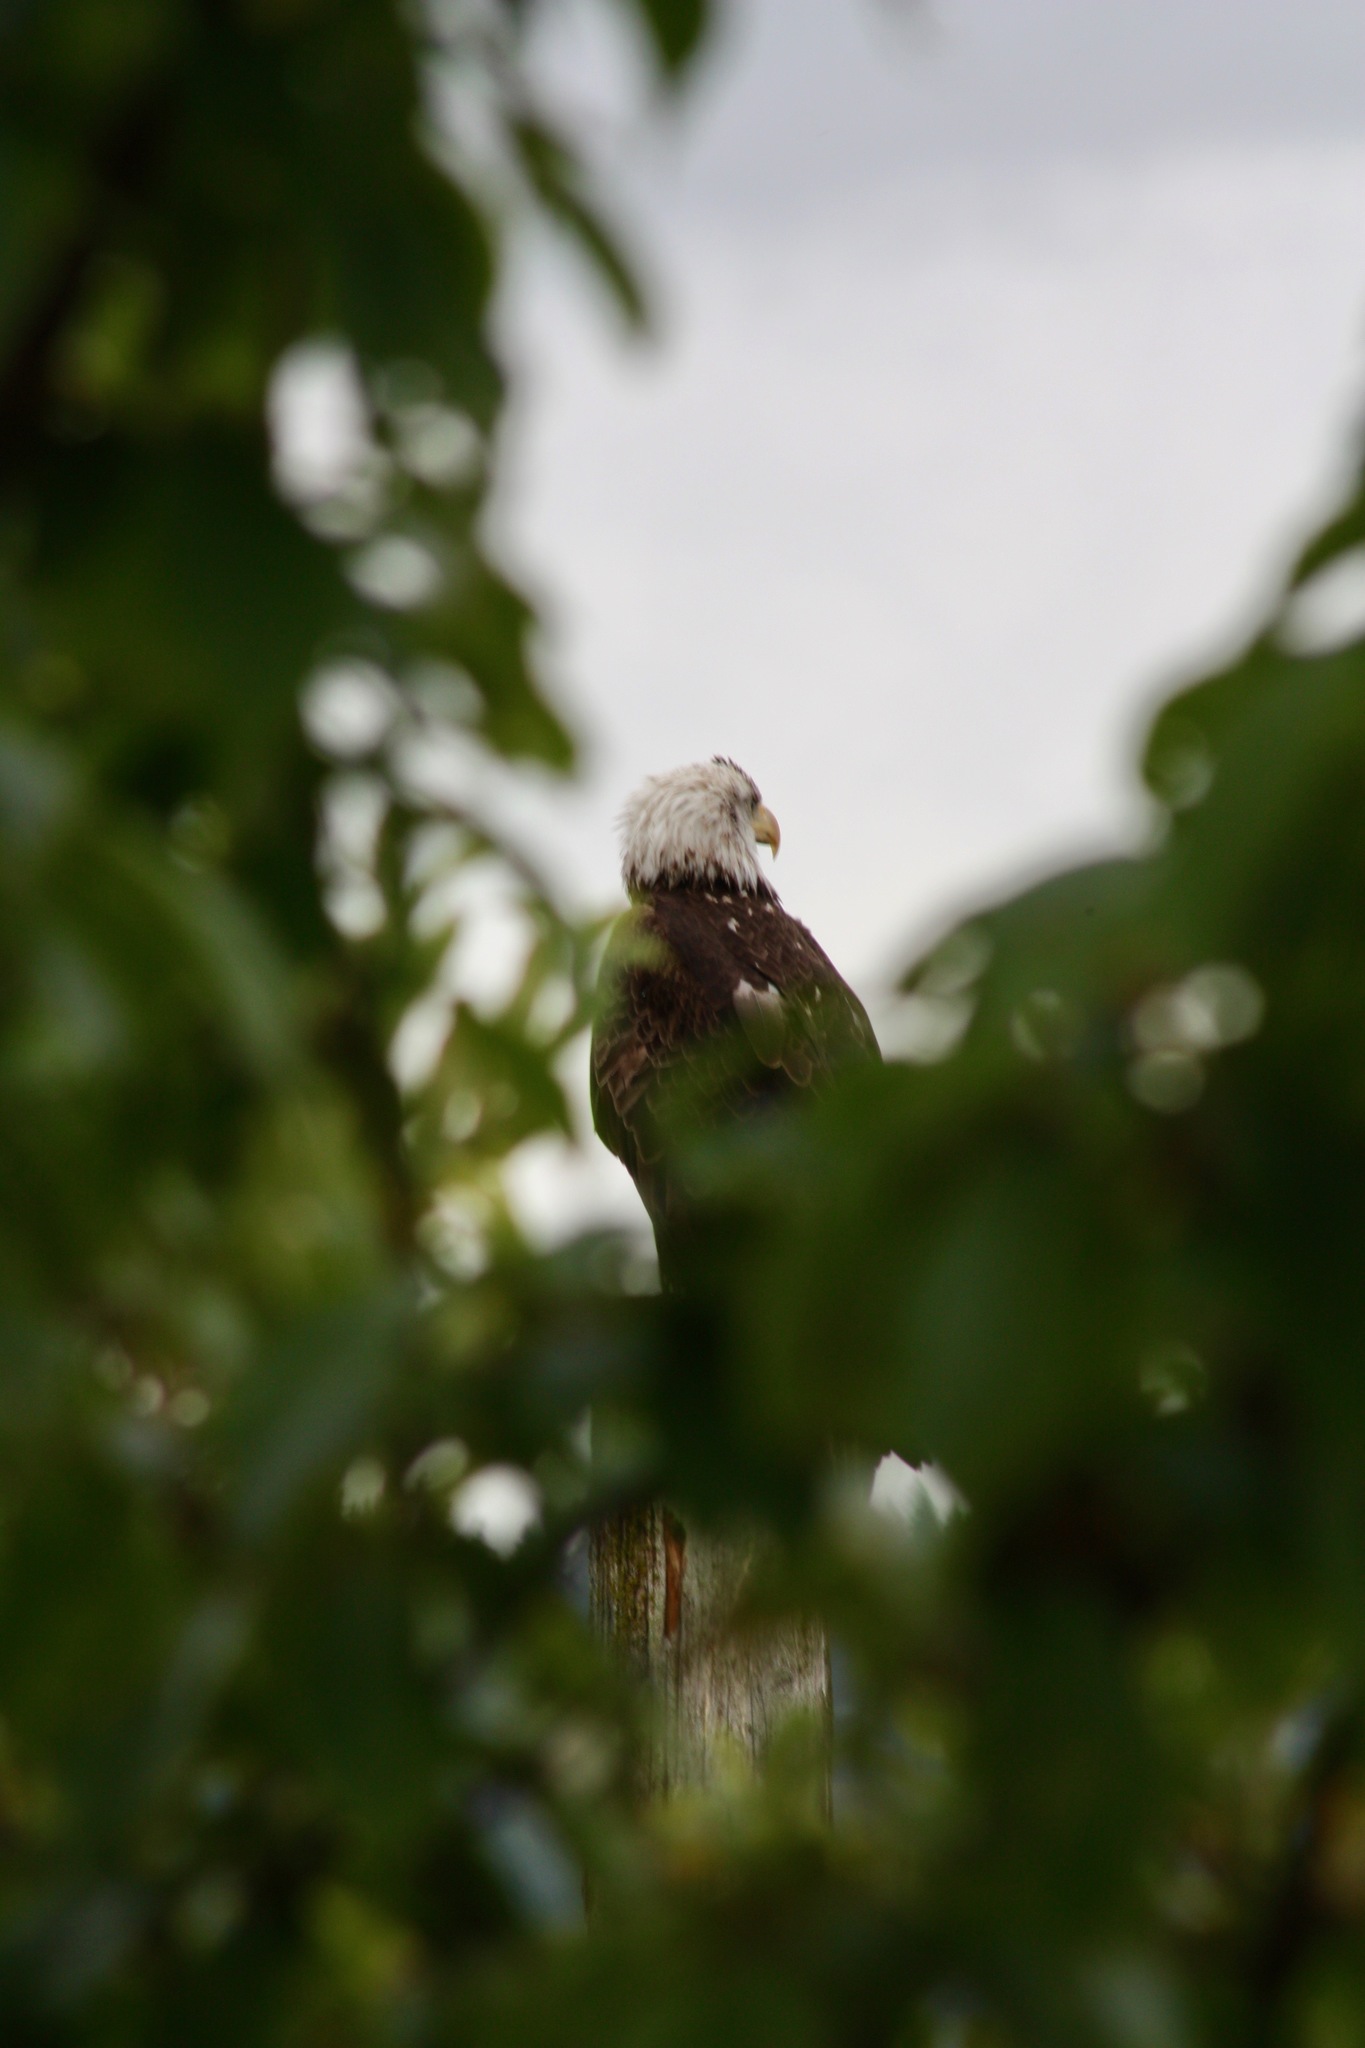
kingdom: Animalia
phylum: Chordata
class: Aves
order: Accipitriformes
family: Accipitridae
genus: Haliaeetus
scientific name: Haliaeetus leucocephalus
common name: Bald eagle
